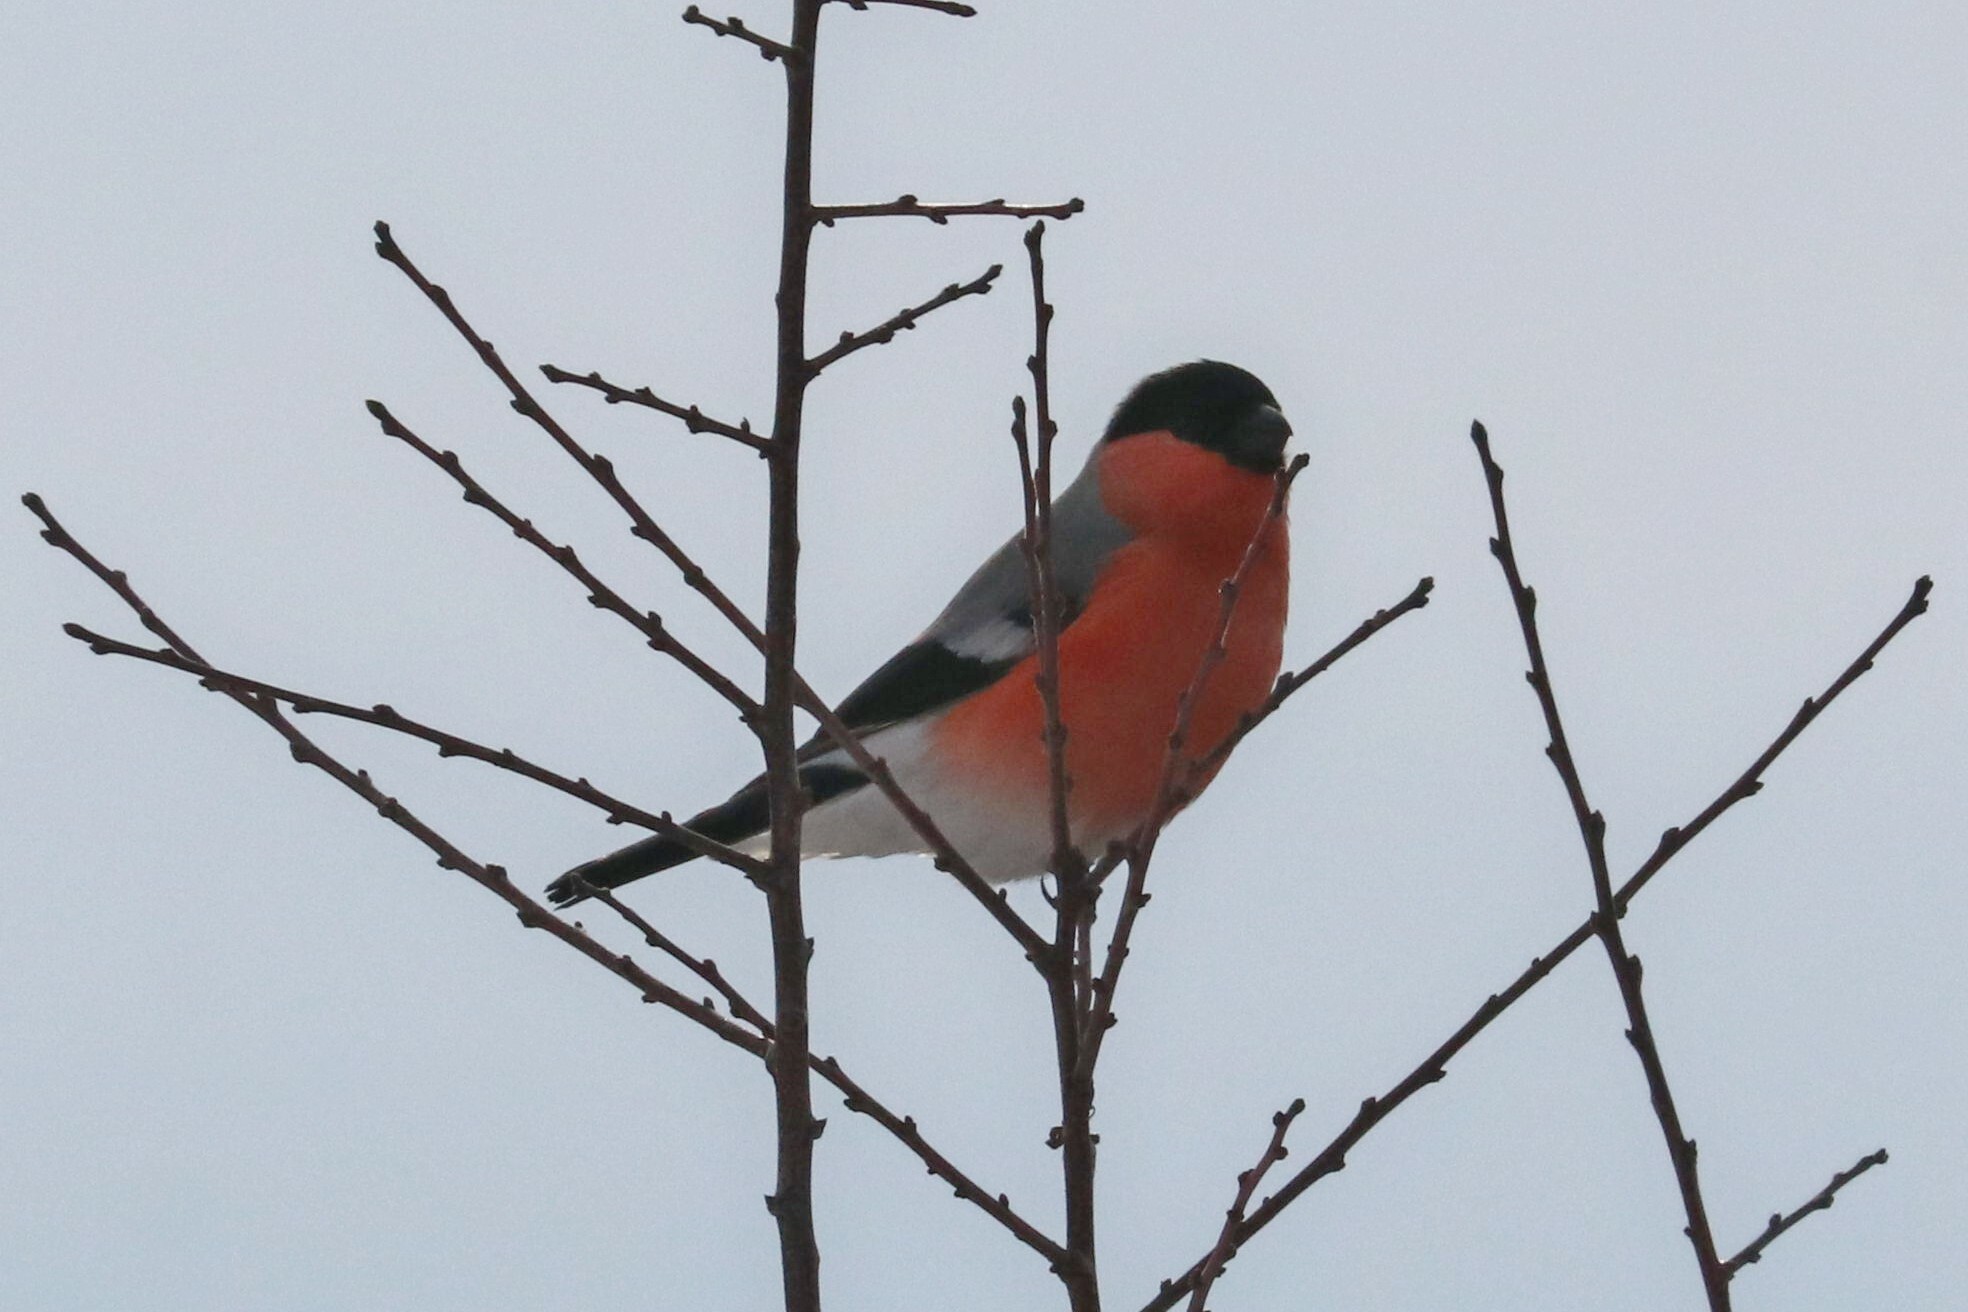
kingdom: Animalia
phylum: Chordata
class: Aves
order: Passeriformes
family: Fringillidae
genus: Pyrrhula
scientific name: Pyrrhula pyrrhula
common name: Eurasian bullfinch
